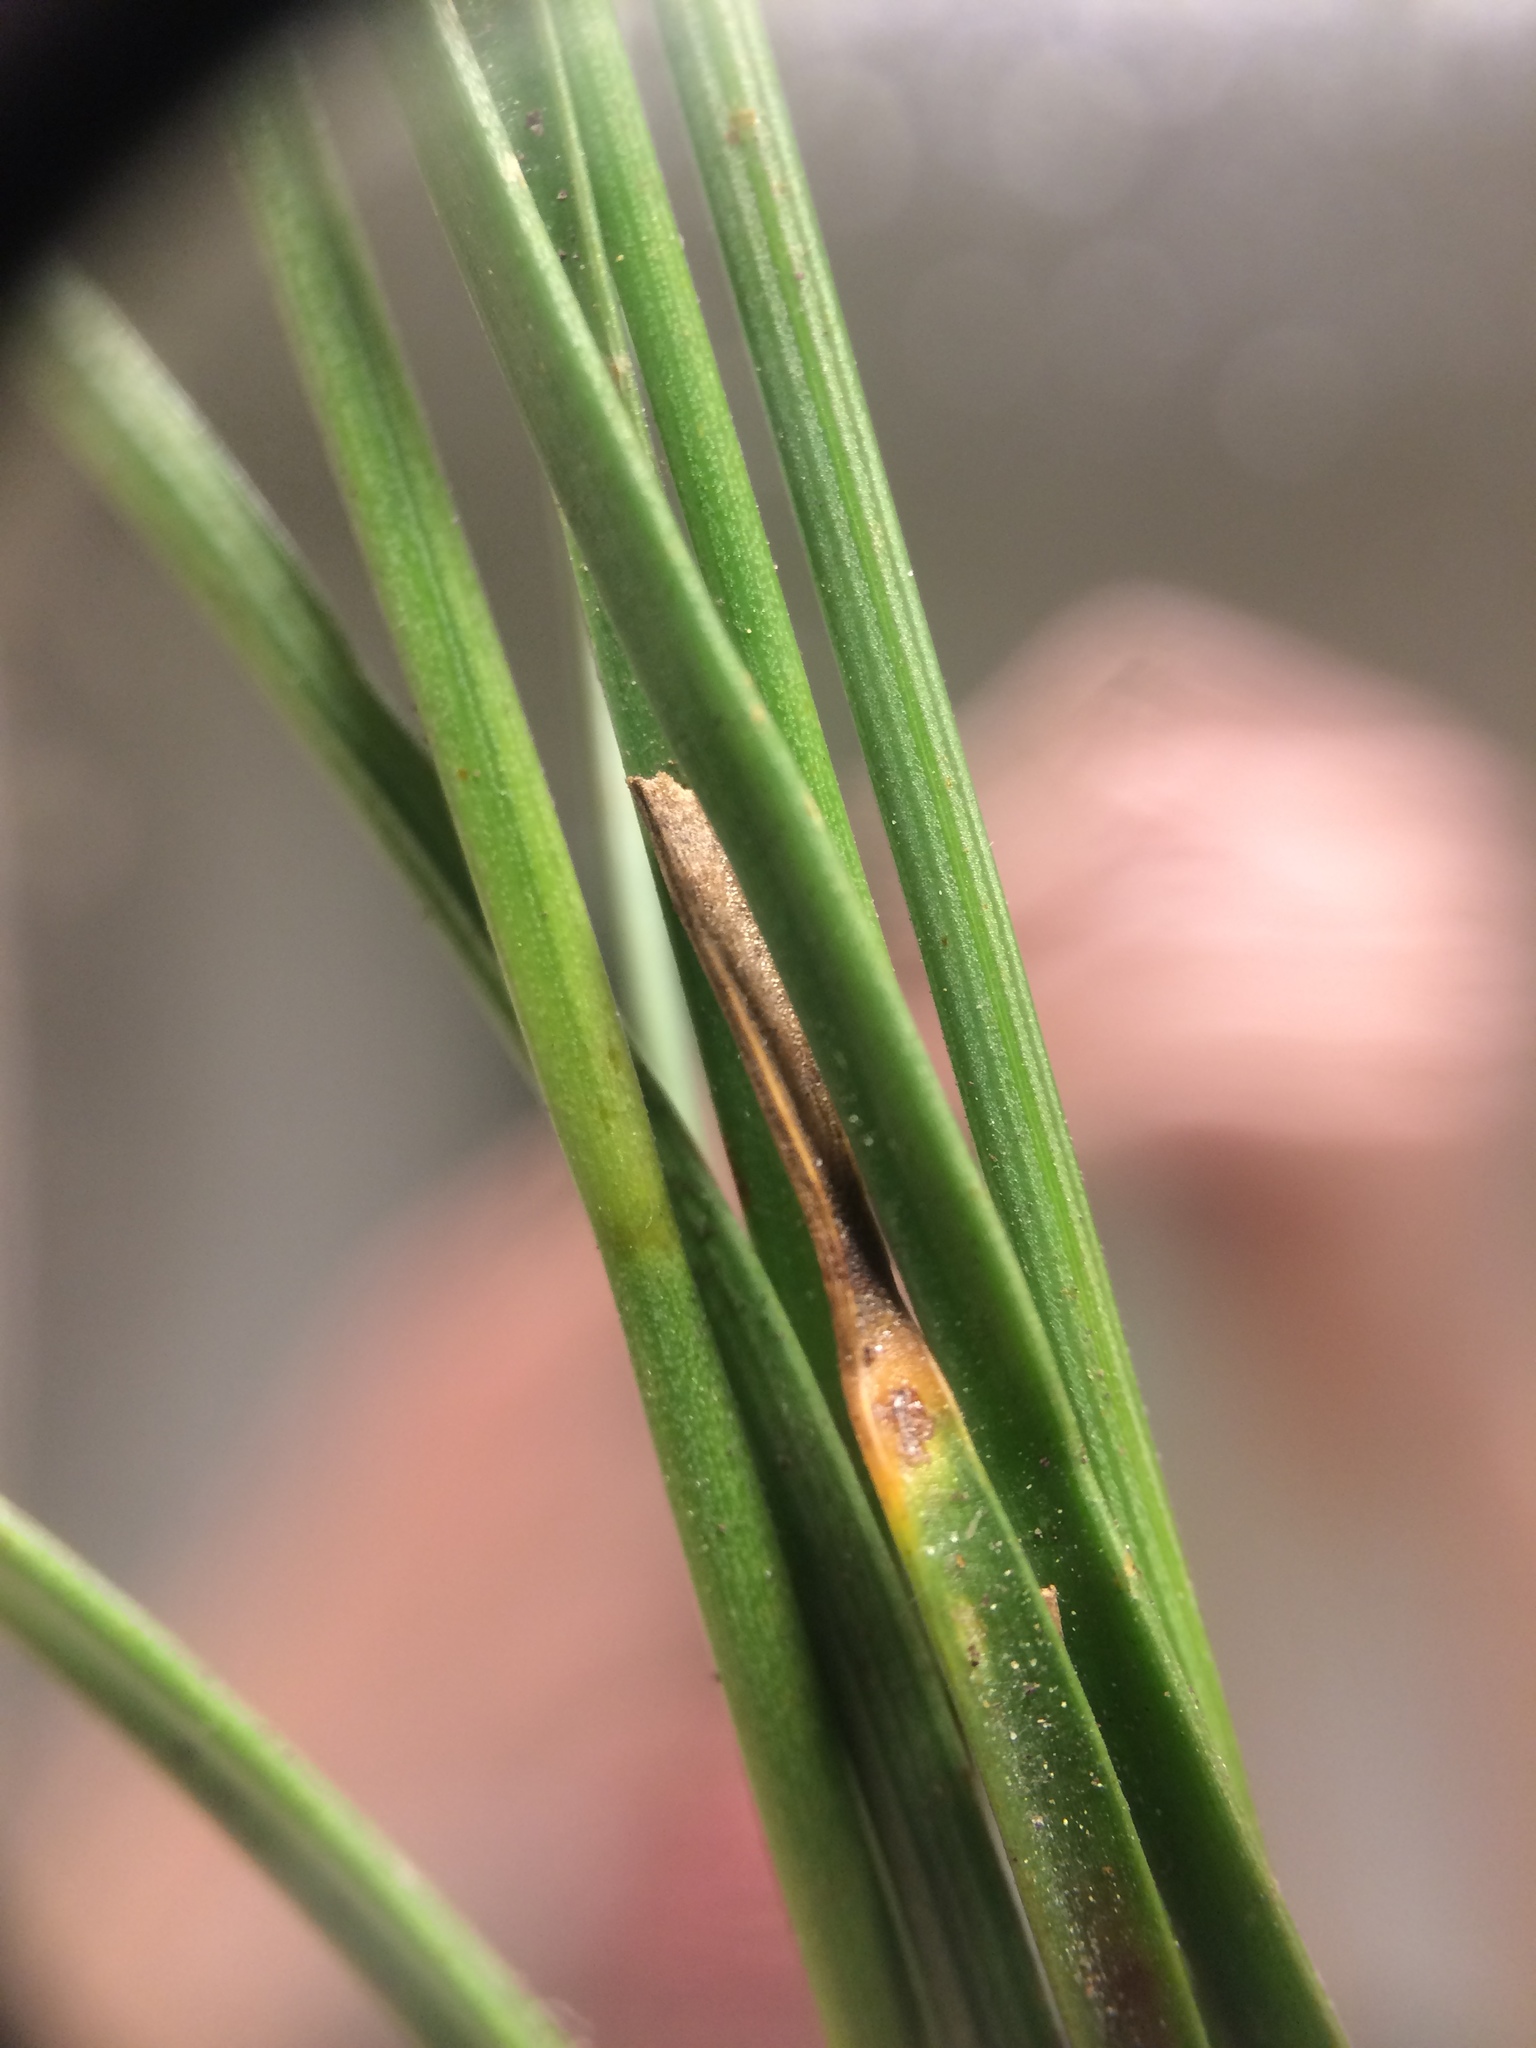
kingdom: Plantae
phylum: Tracheophyta
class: Liliopsida
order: Poales
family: Juncaceae
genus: Juncus
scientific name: Juncus gerardi
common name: Saltmarsh rush
